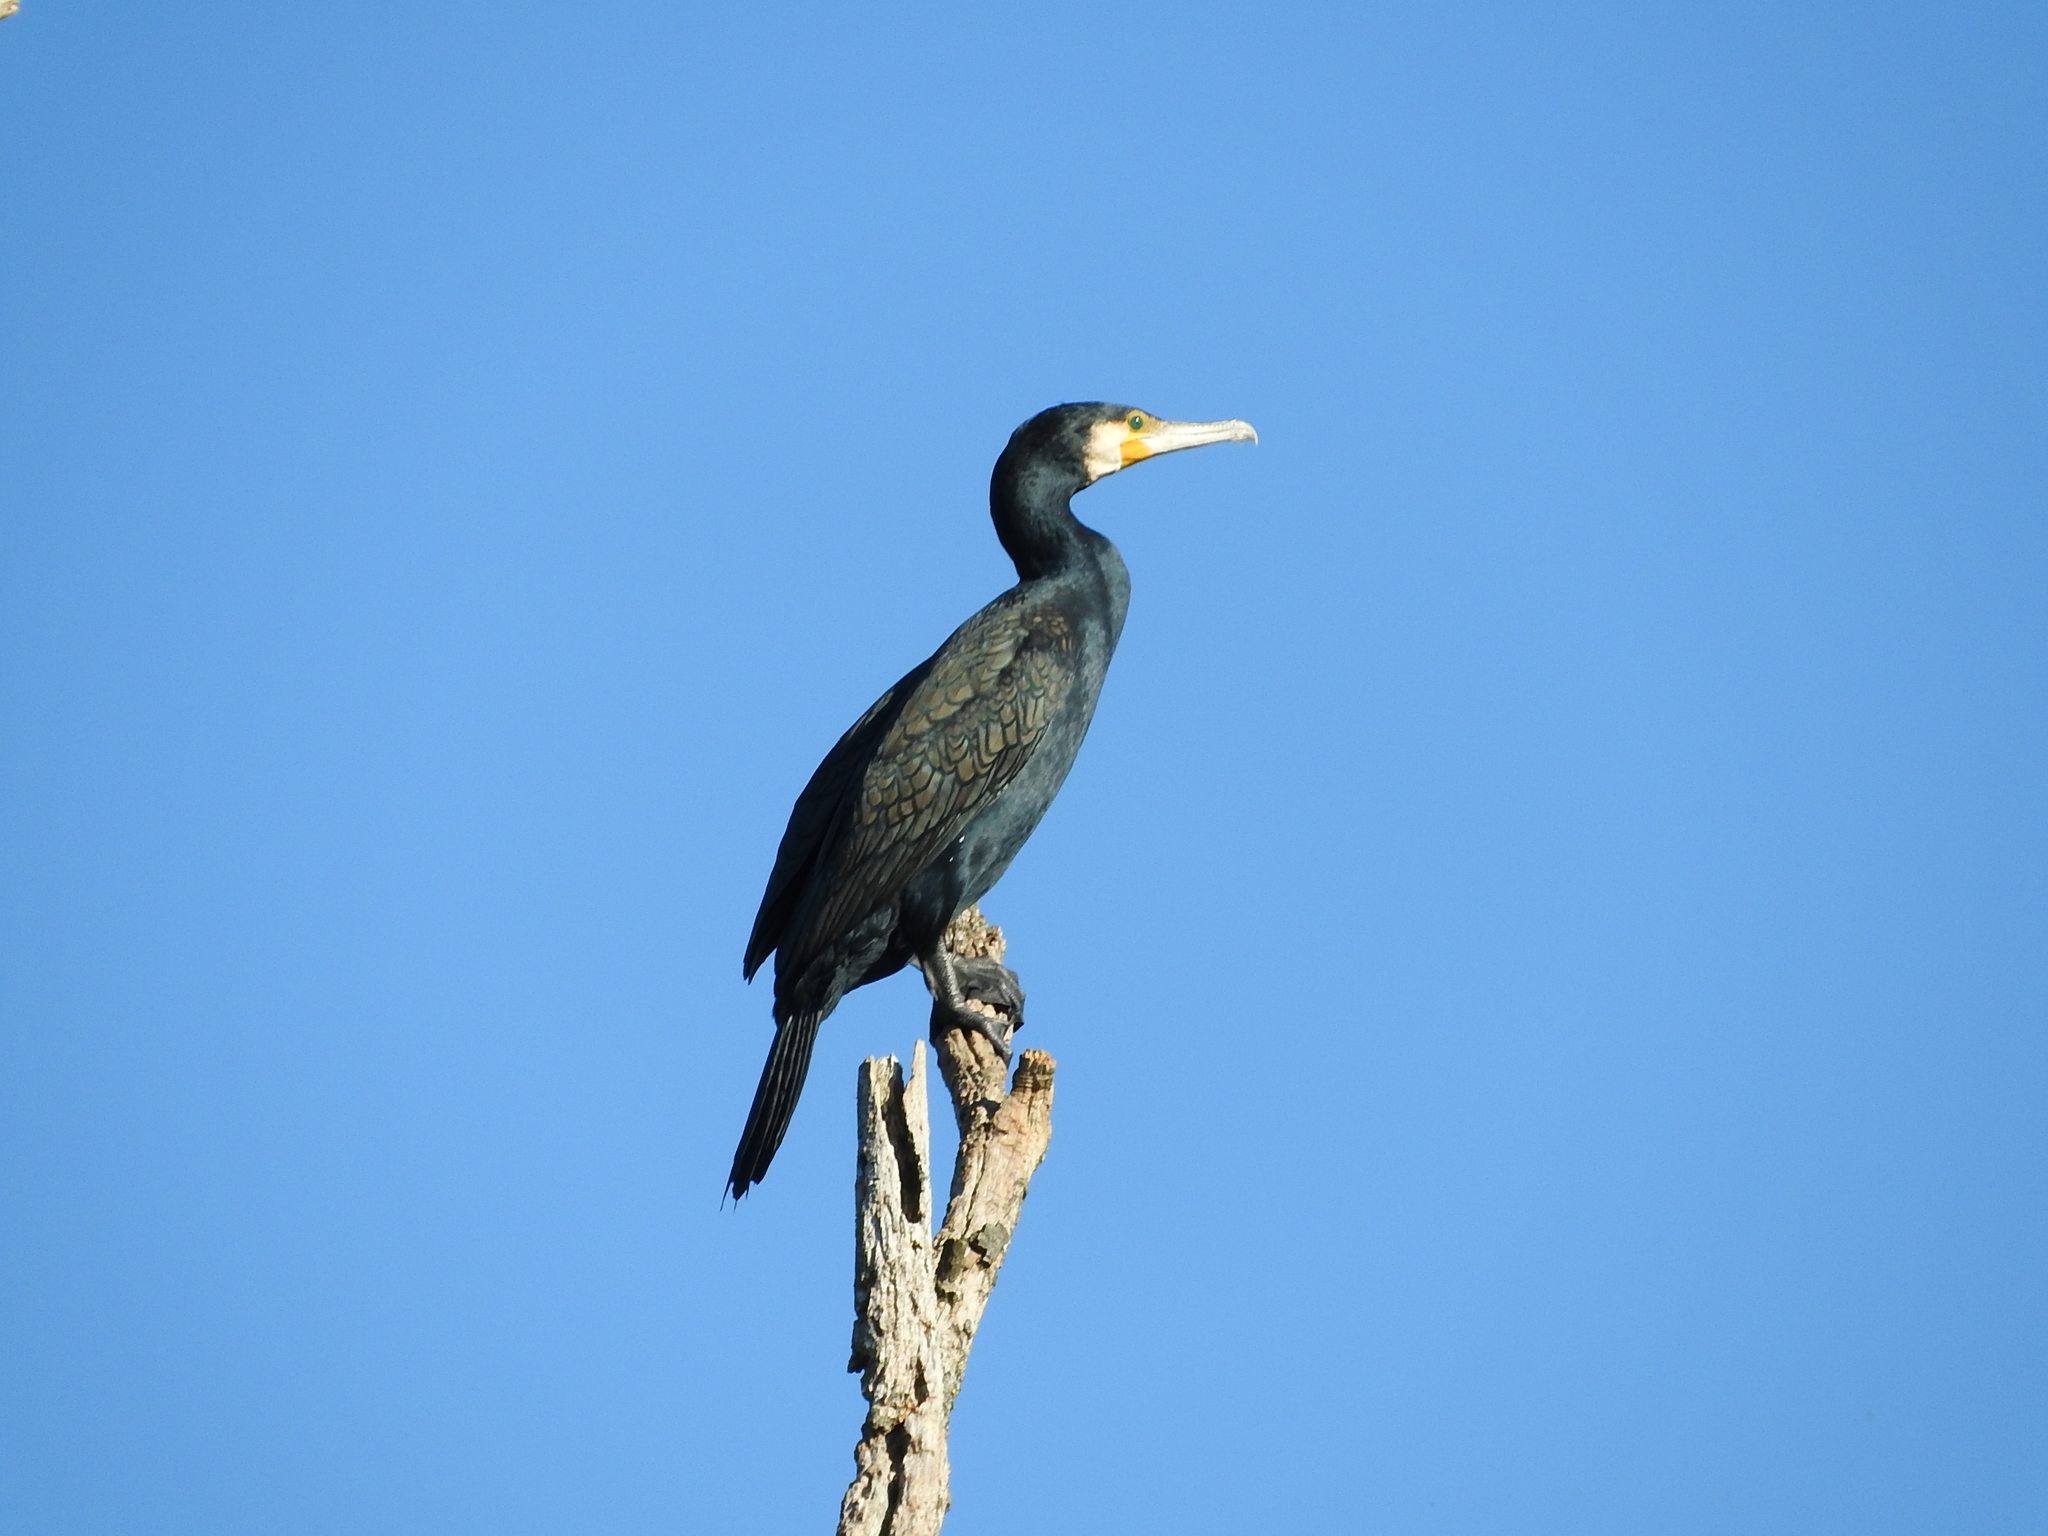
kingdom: Animalia
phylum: Chordata
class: Aves
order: Suliformes
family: Phalacrocoracidae
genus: Phalacrocorax
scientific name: Phalacrocorax carbo
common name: Great cormorant
